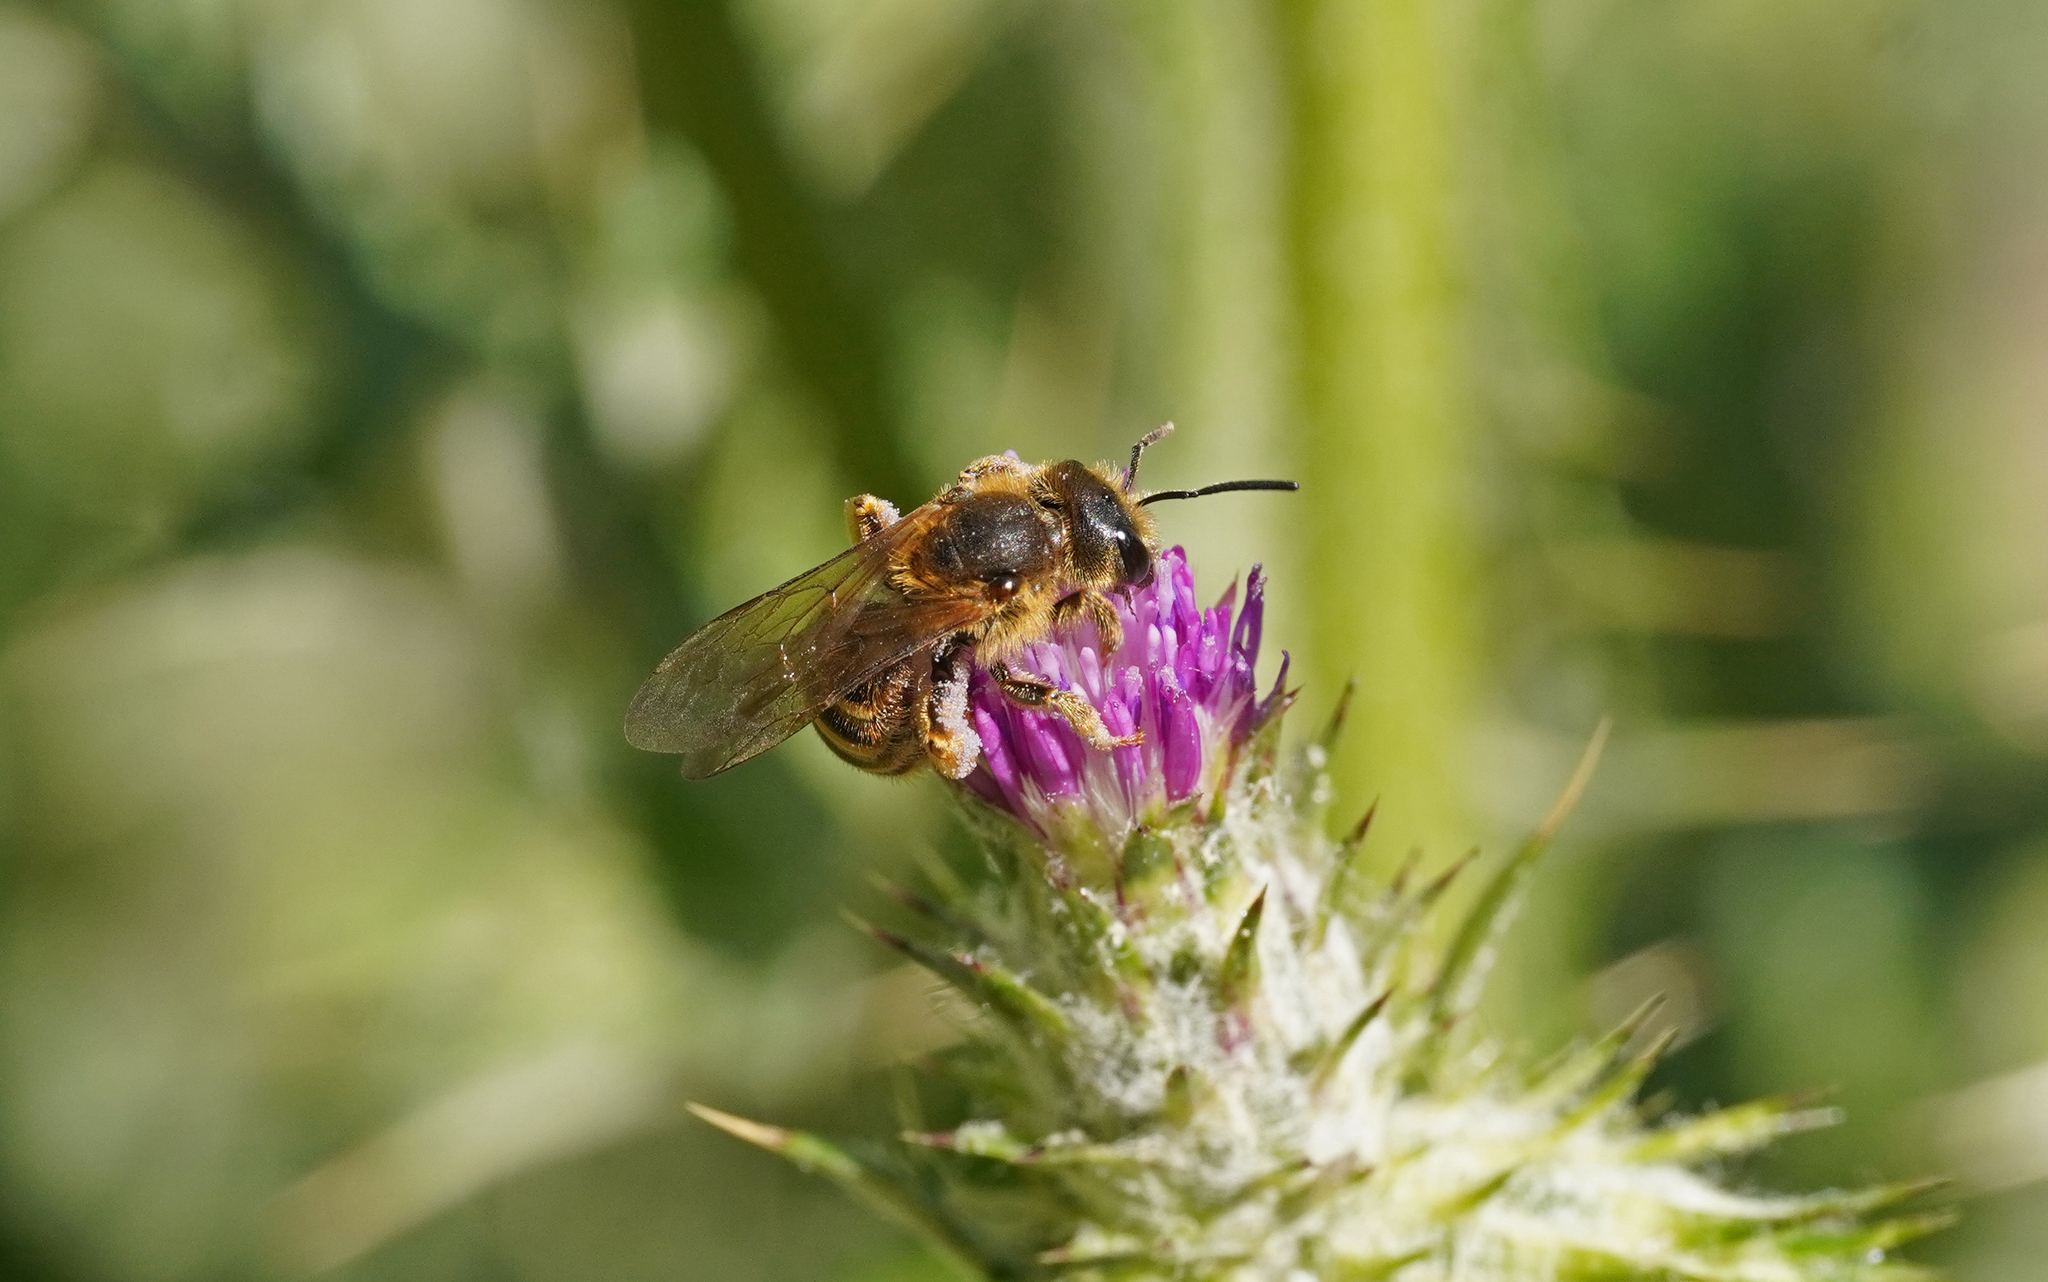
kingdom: Animalia
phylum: Arthropoda
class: Insecta
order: Hymenoptera
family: Halictidae
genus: Halictus
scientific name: Halictus scabiosae
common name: Great banded furrow bee
